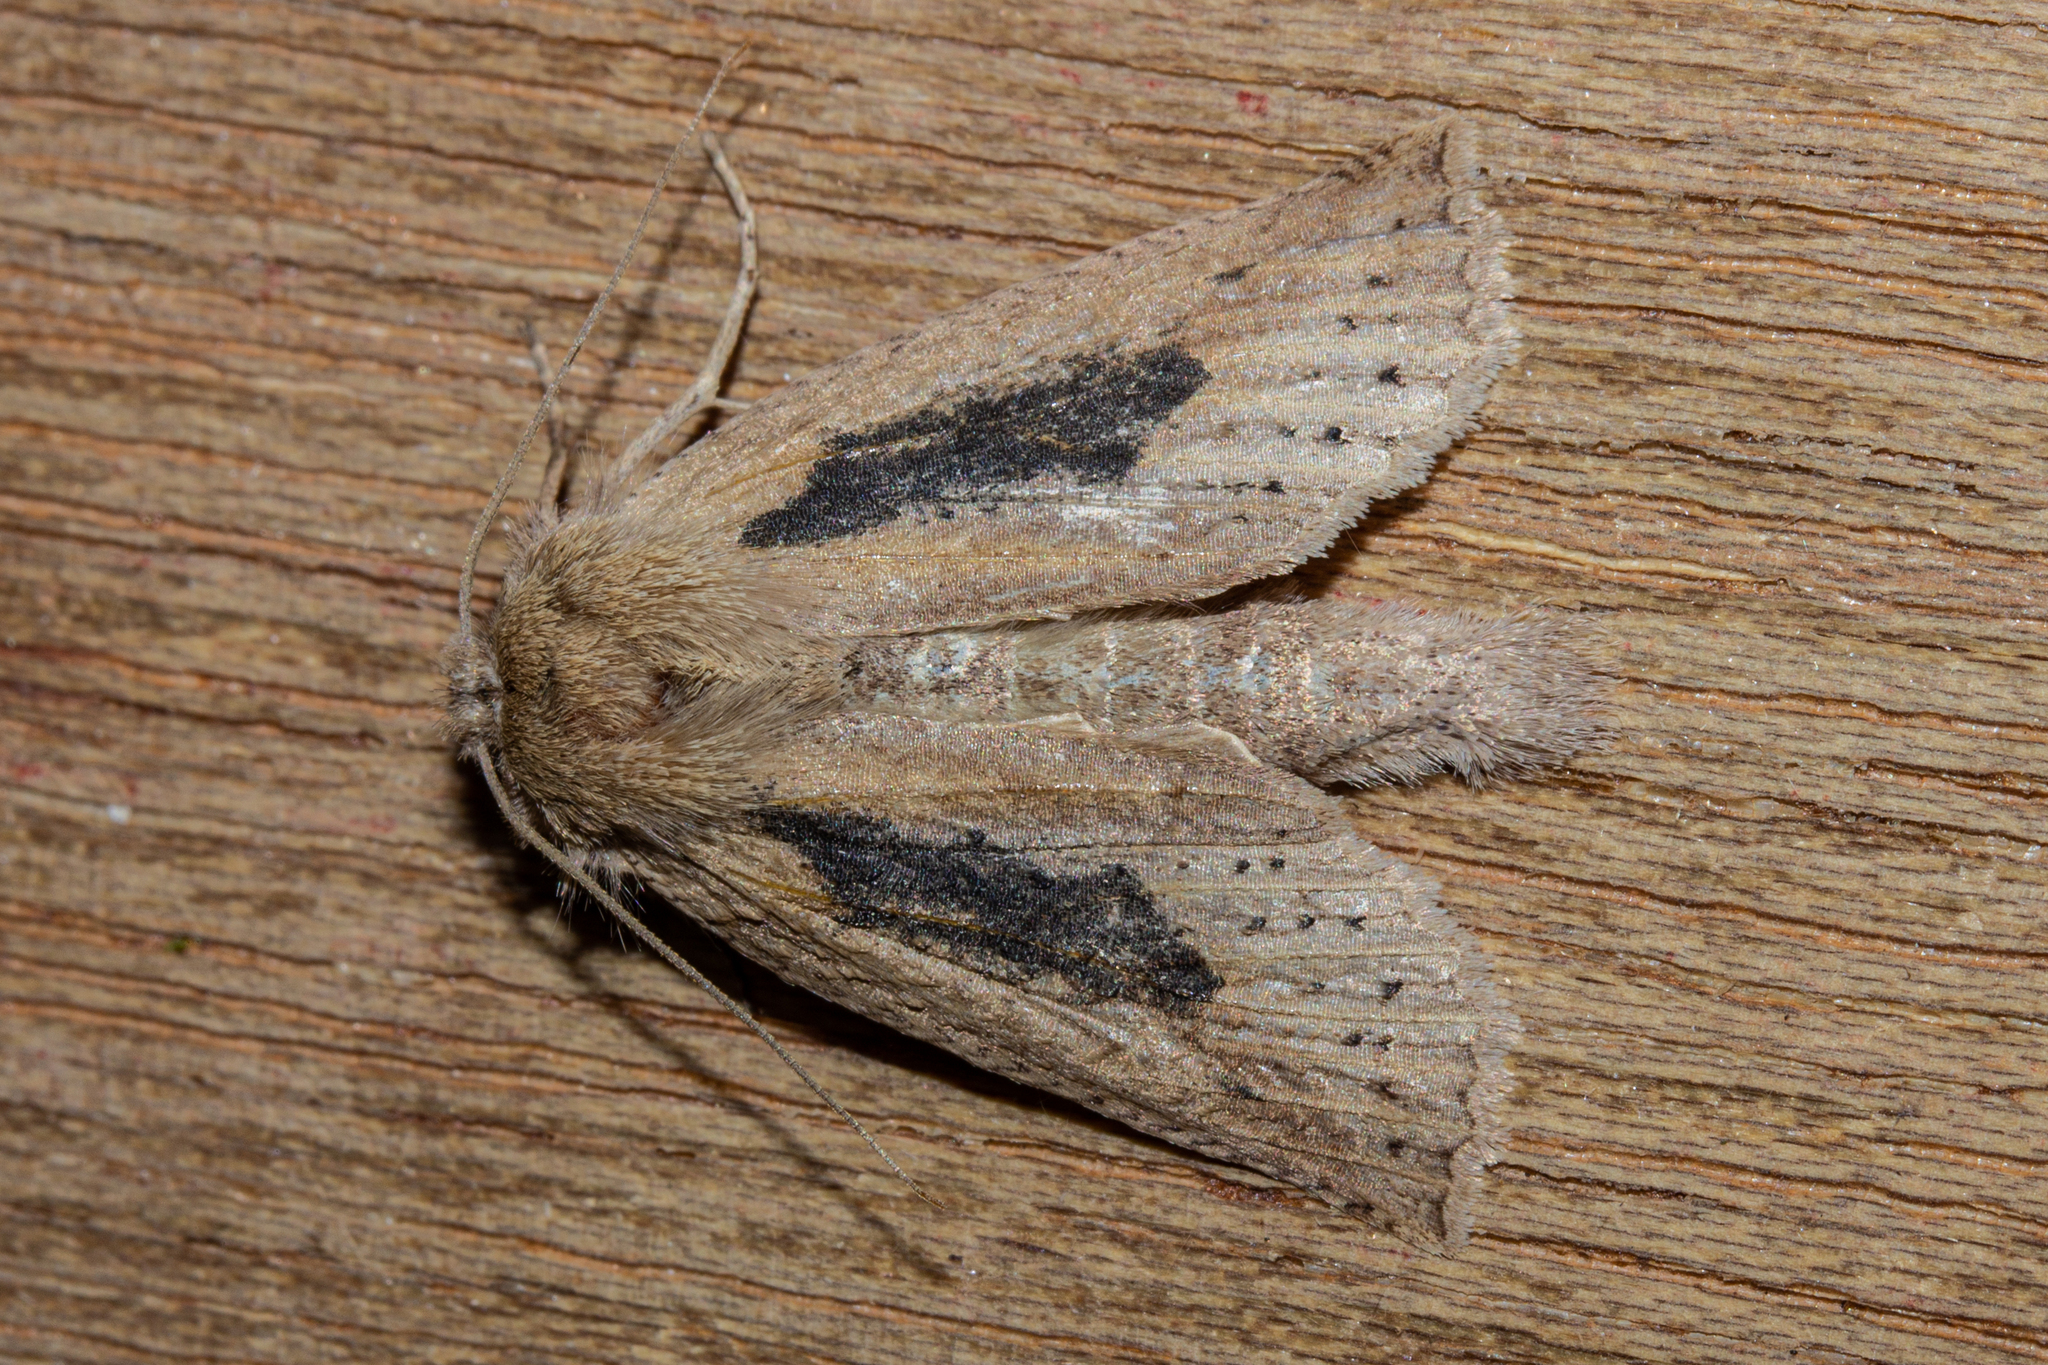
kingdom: Animalia
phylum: Arthropoda
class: Insecta
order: Lepidoptera
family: Geometridae
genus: Declana
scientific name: Declana leptomera
